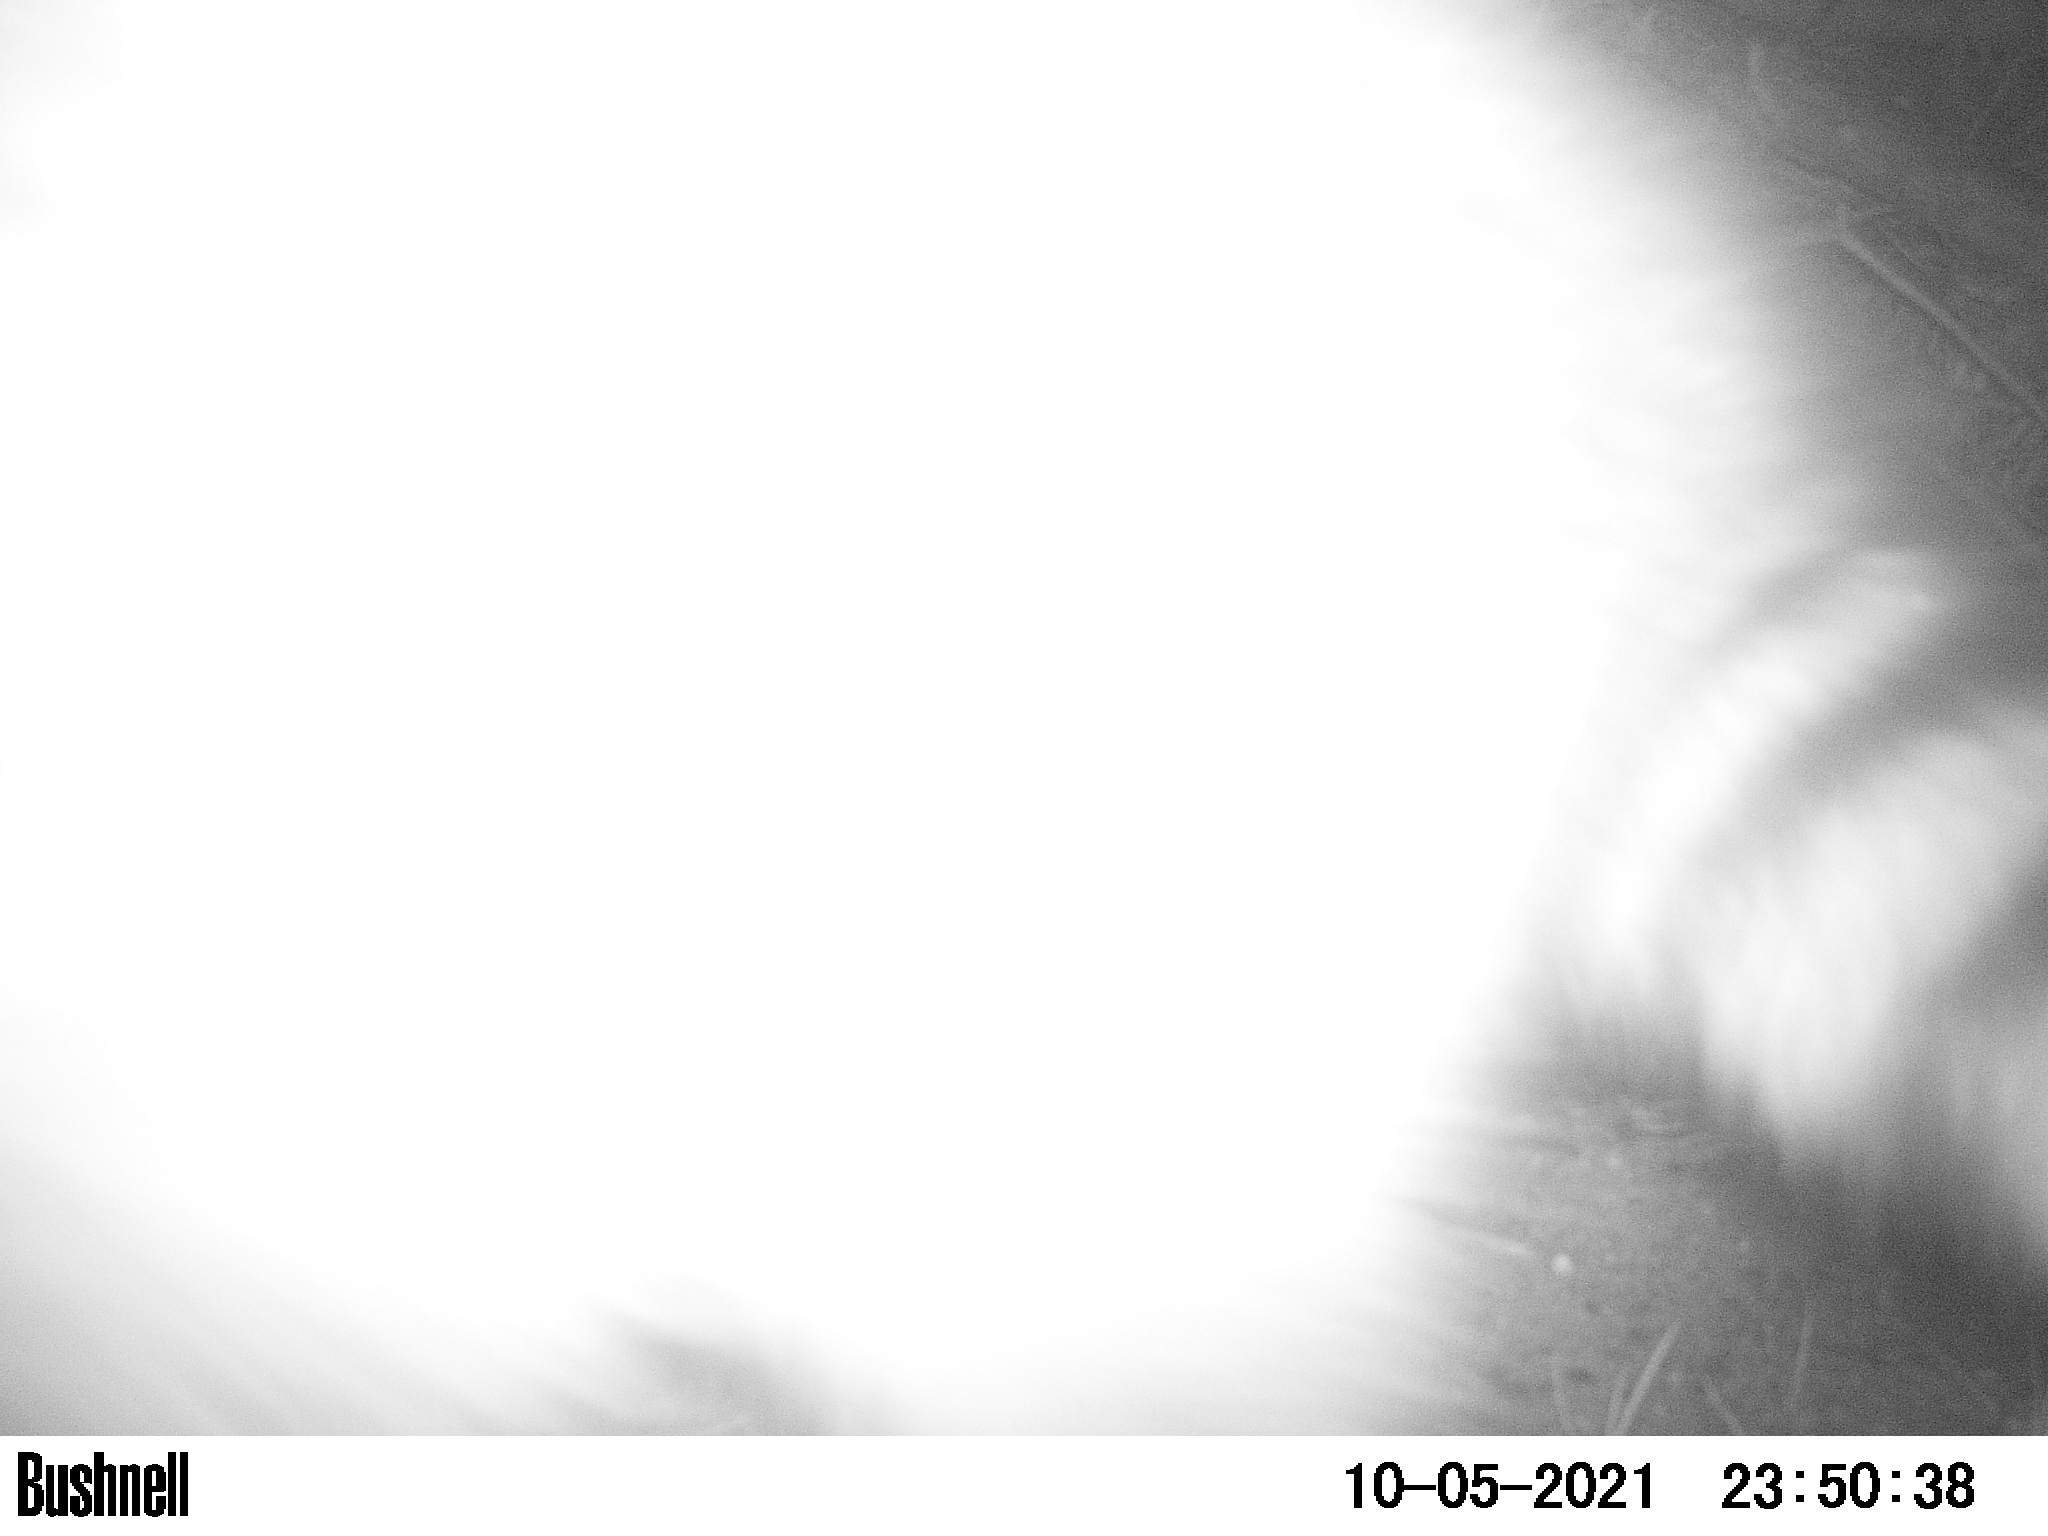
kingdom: Animalia
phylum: Chordata
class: Mammalia
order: Carnivora
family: Procyonidae
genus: Procyon
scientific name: Procyon lotor
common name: Raccoon
